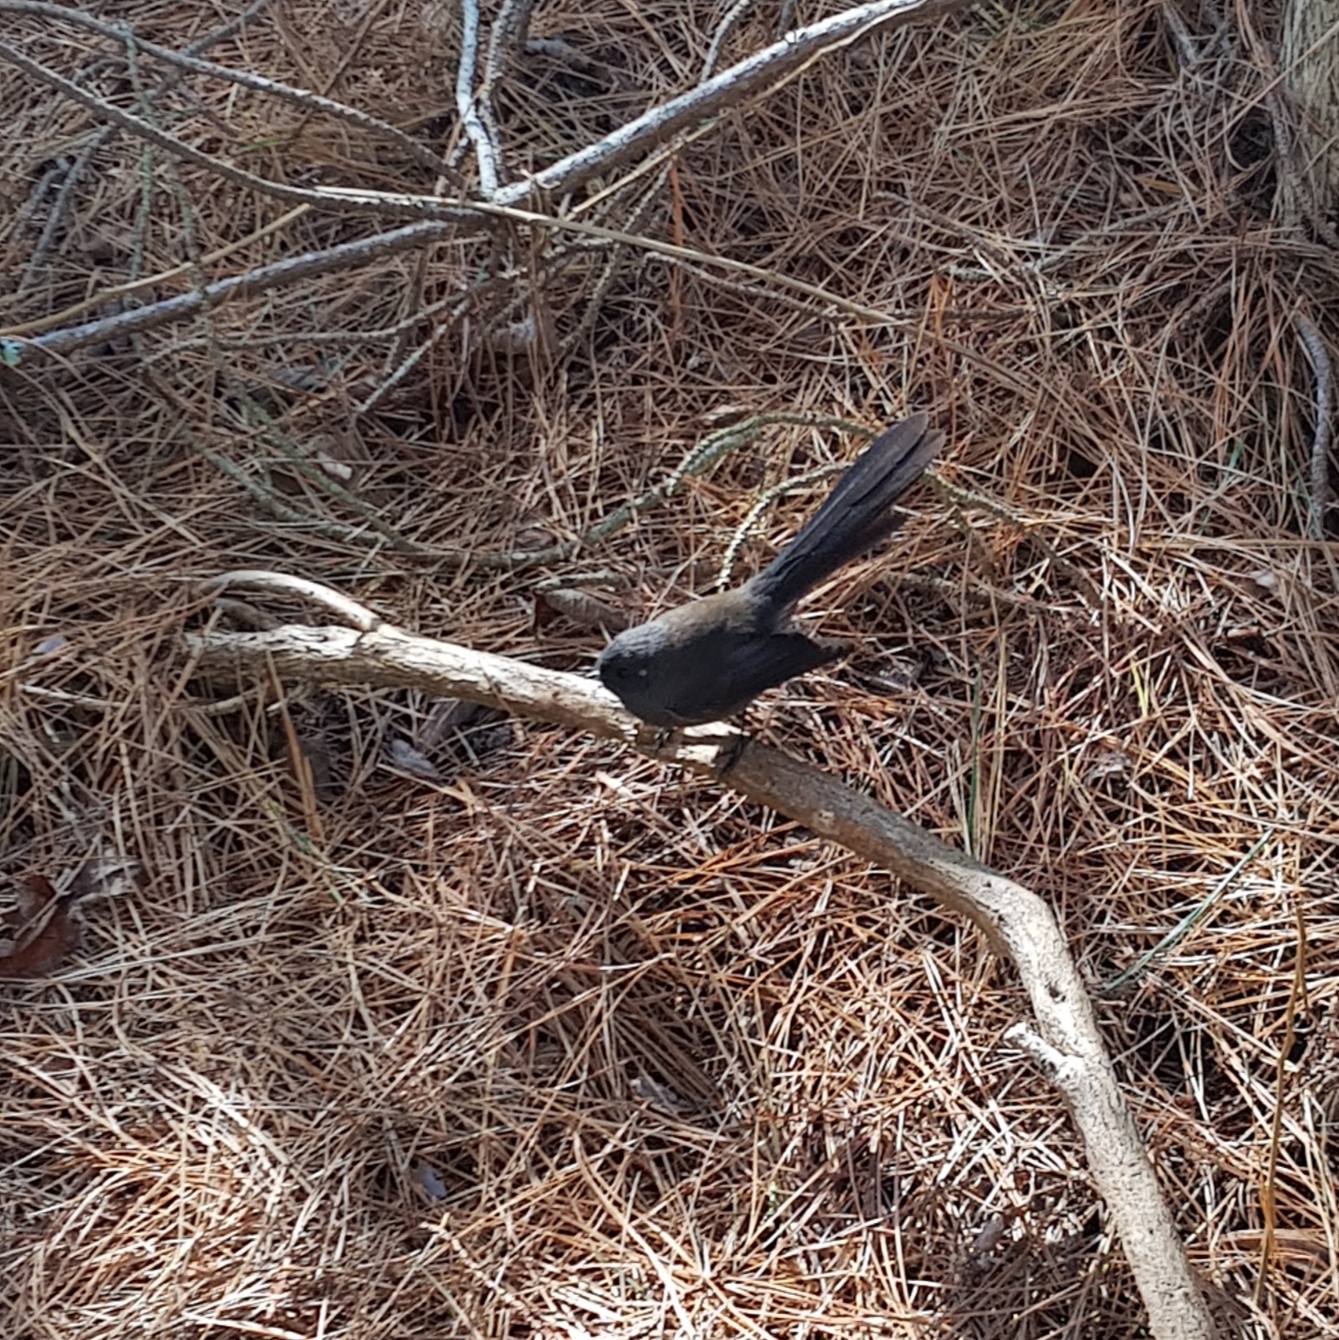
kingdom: Animalia
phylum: Chordata
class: Aves
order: Passeriformes
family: Rhipiduridae
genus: Rhipidura
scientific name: Rhipidura fuliginosa
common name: New zealand fantail
